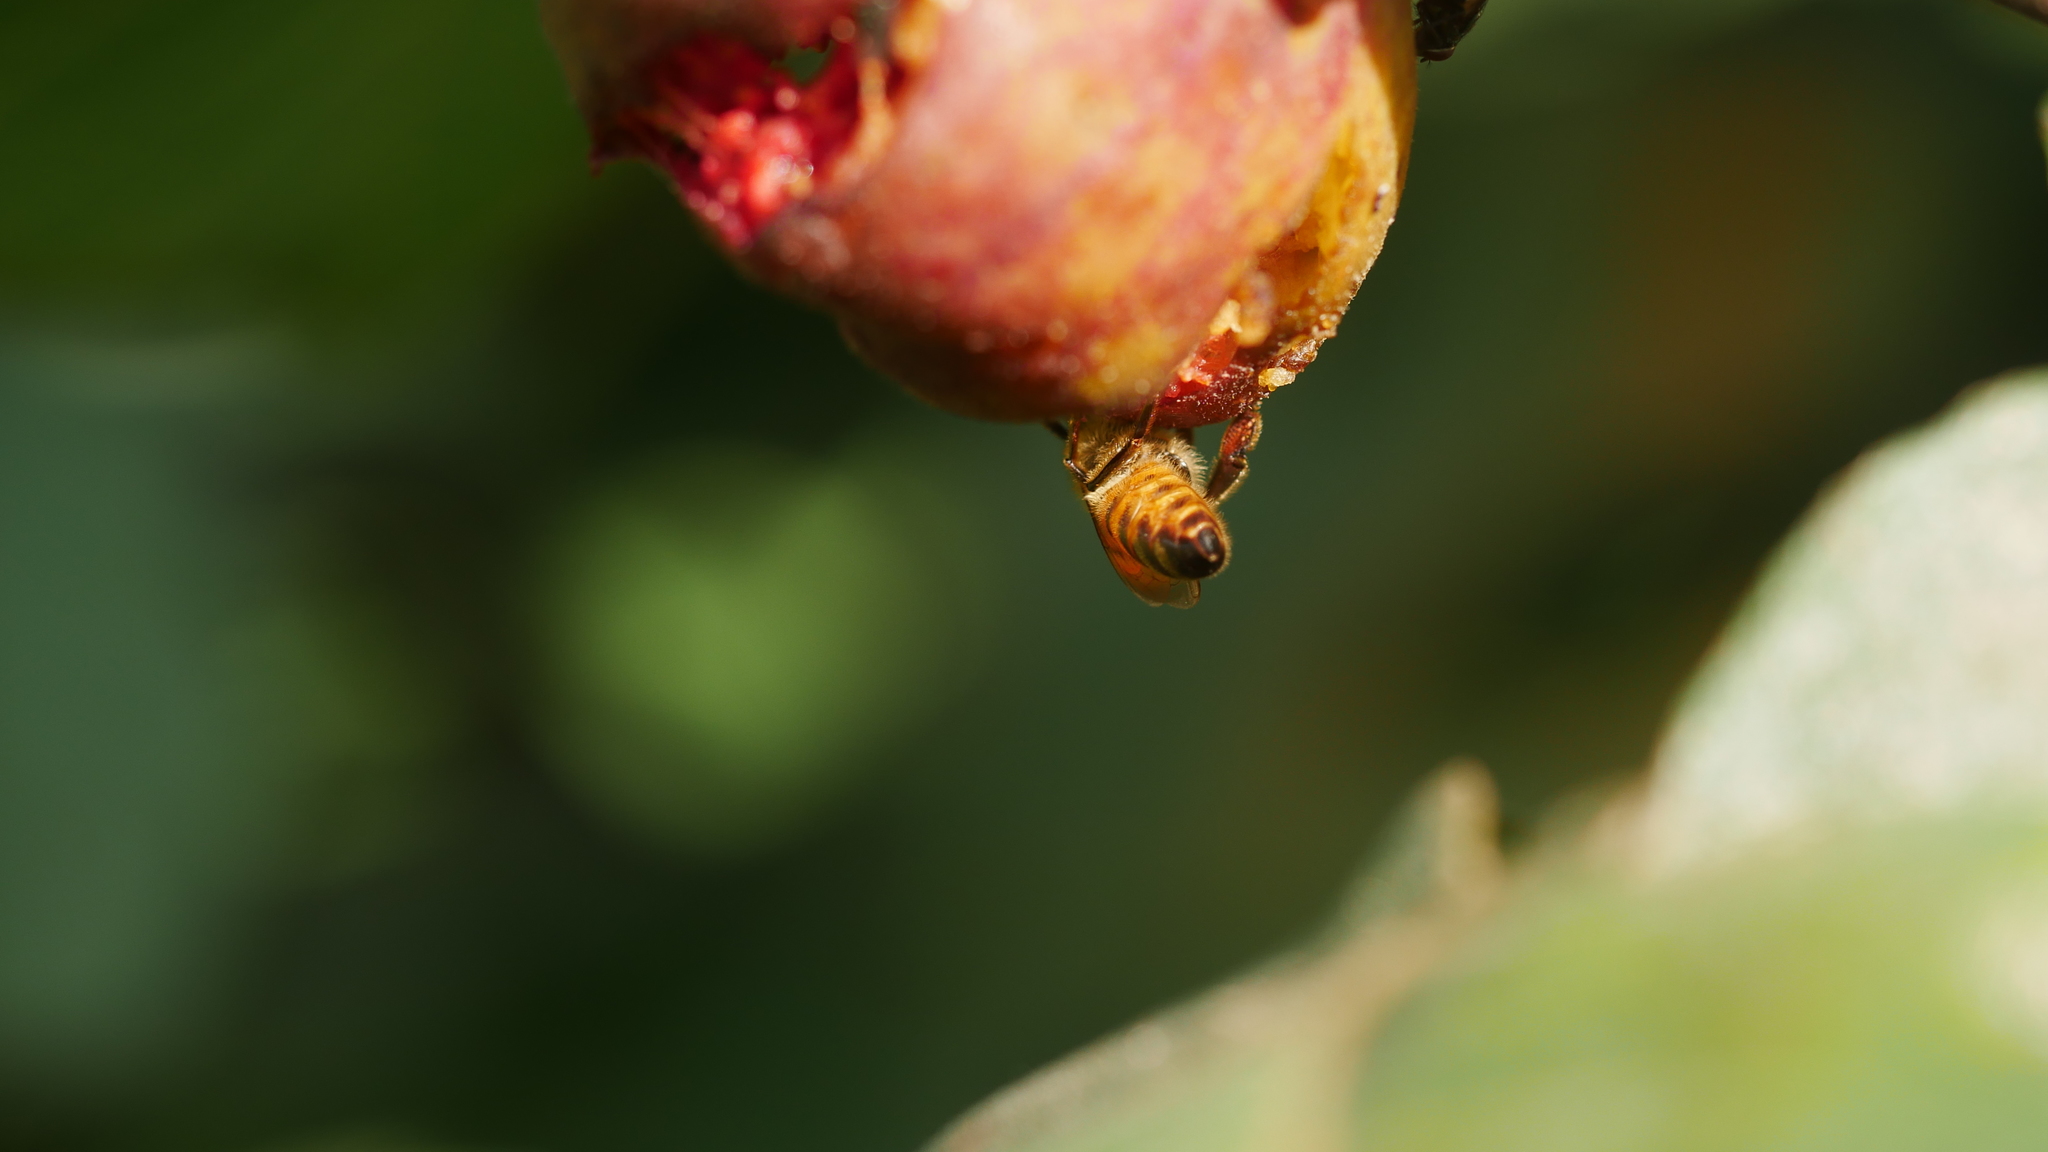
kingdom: Animalia
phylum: Arthropoda
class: Insecta
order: Hymenoptera
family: Apidae
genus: Apis
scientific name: Apis mellifera
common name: Honey bee
